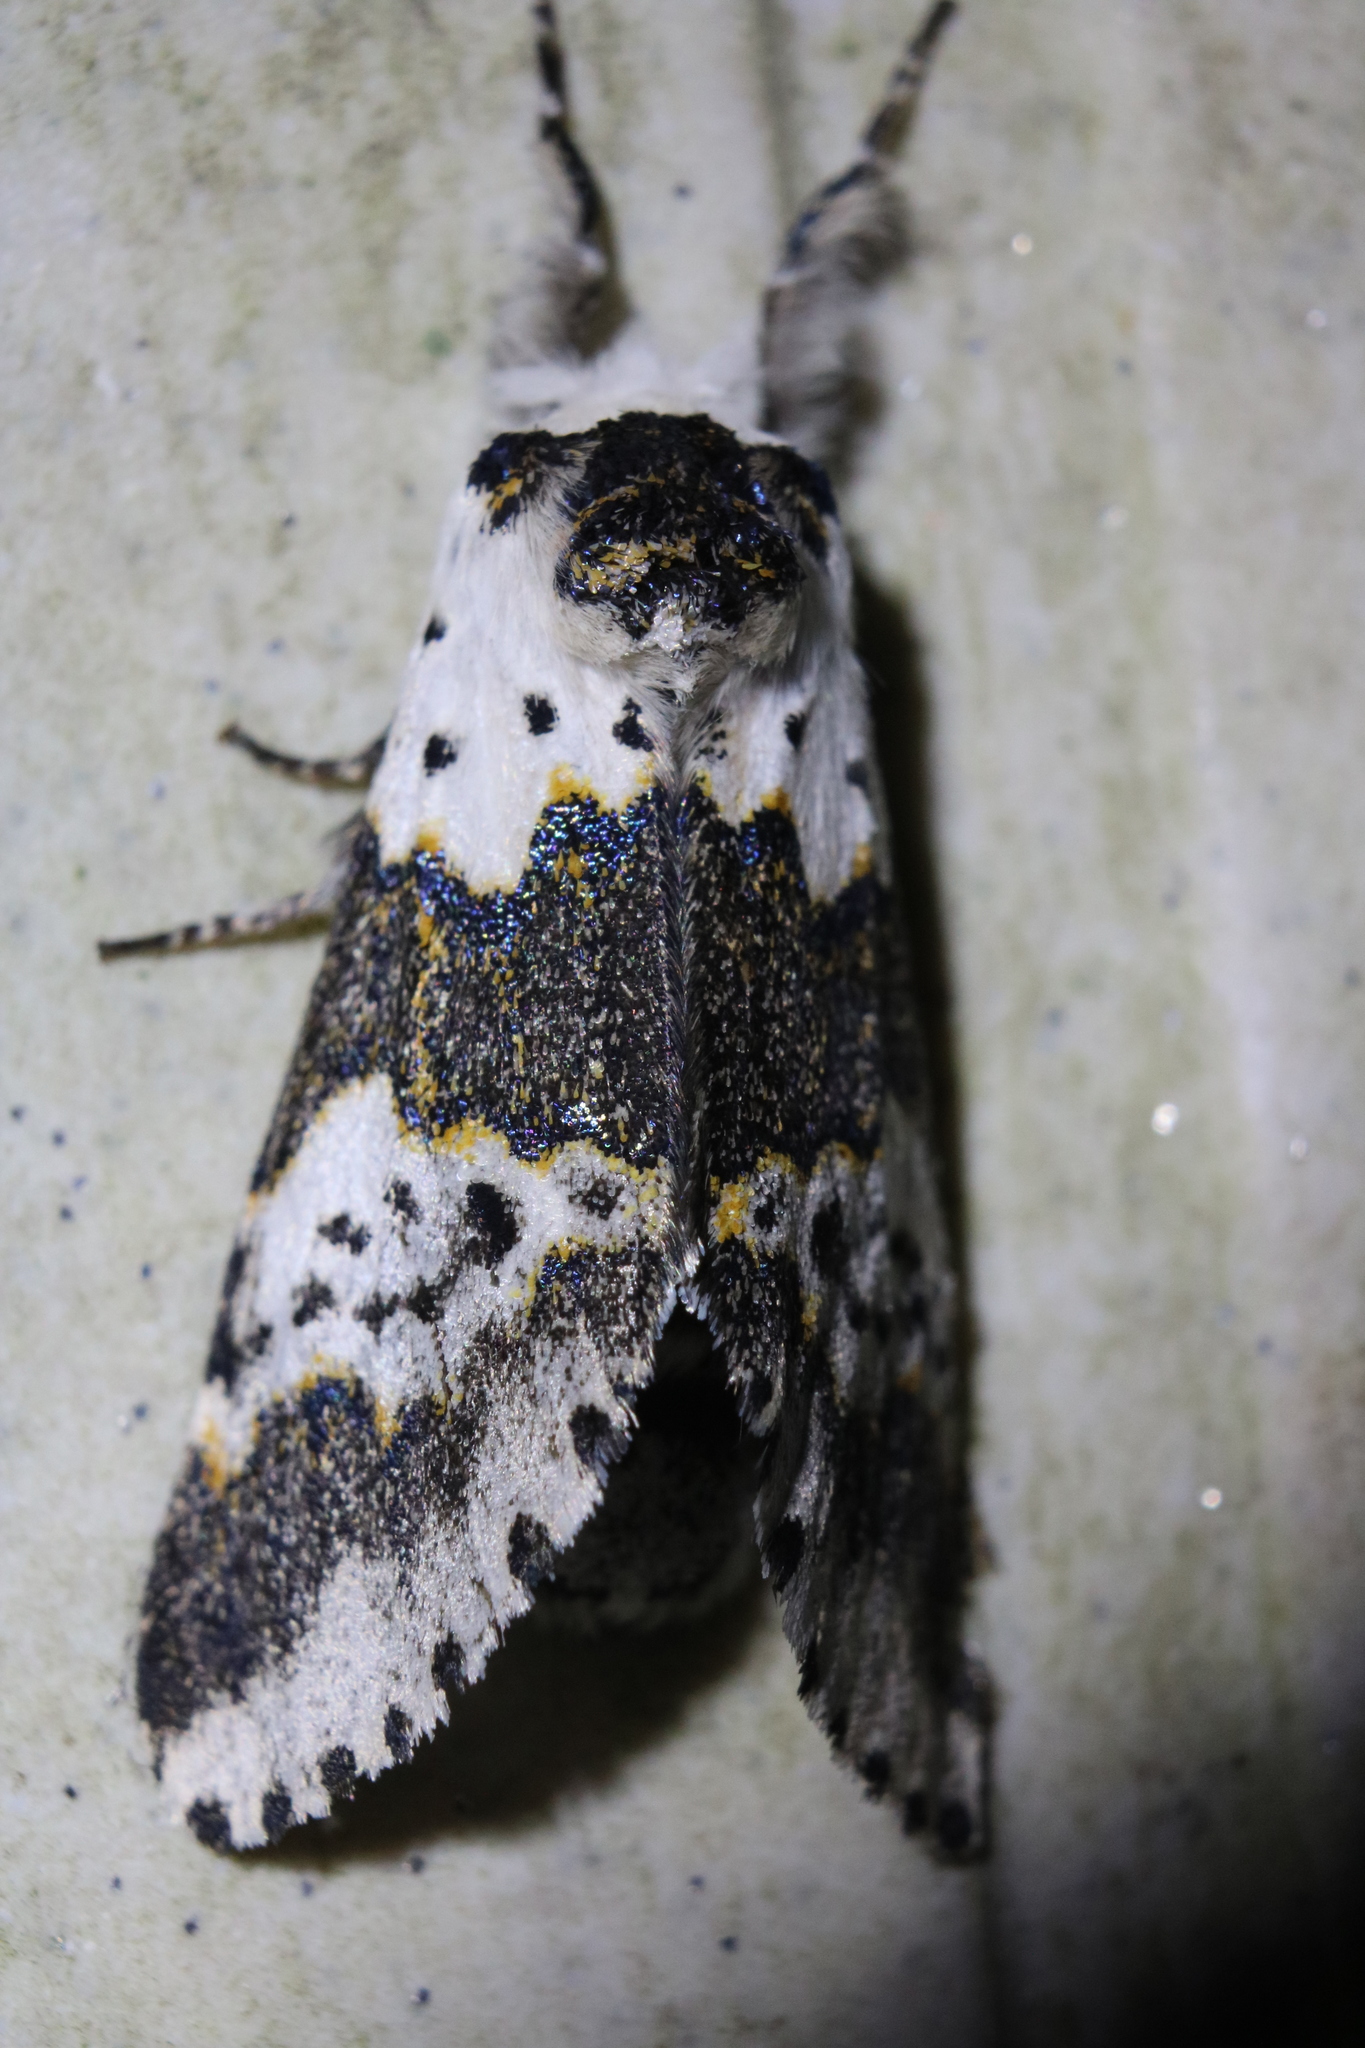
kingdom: Animalia
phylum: Arthropoda
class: Insecta
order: Lepidoptera
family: Notodontidae
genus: Furcula
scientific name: Furcula borealis
